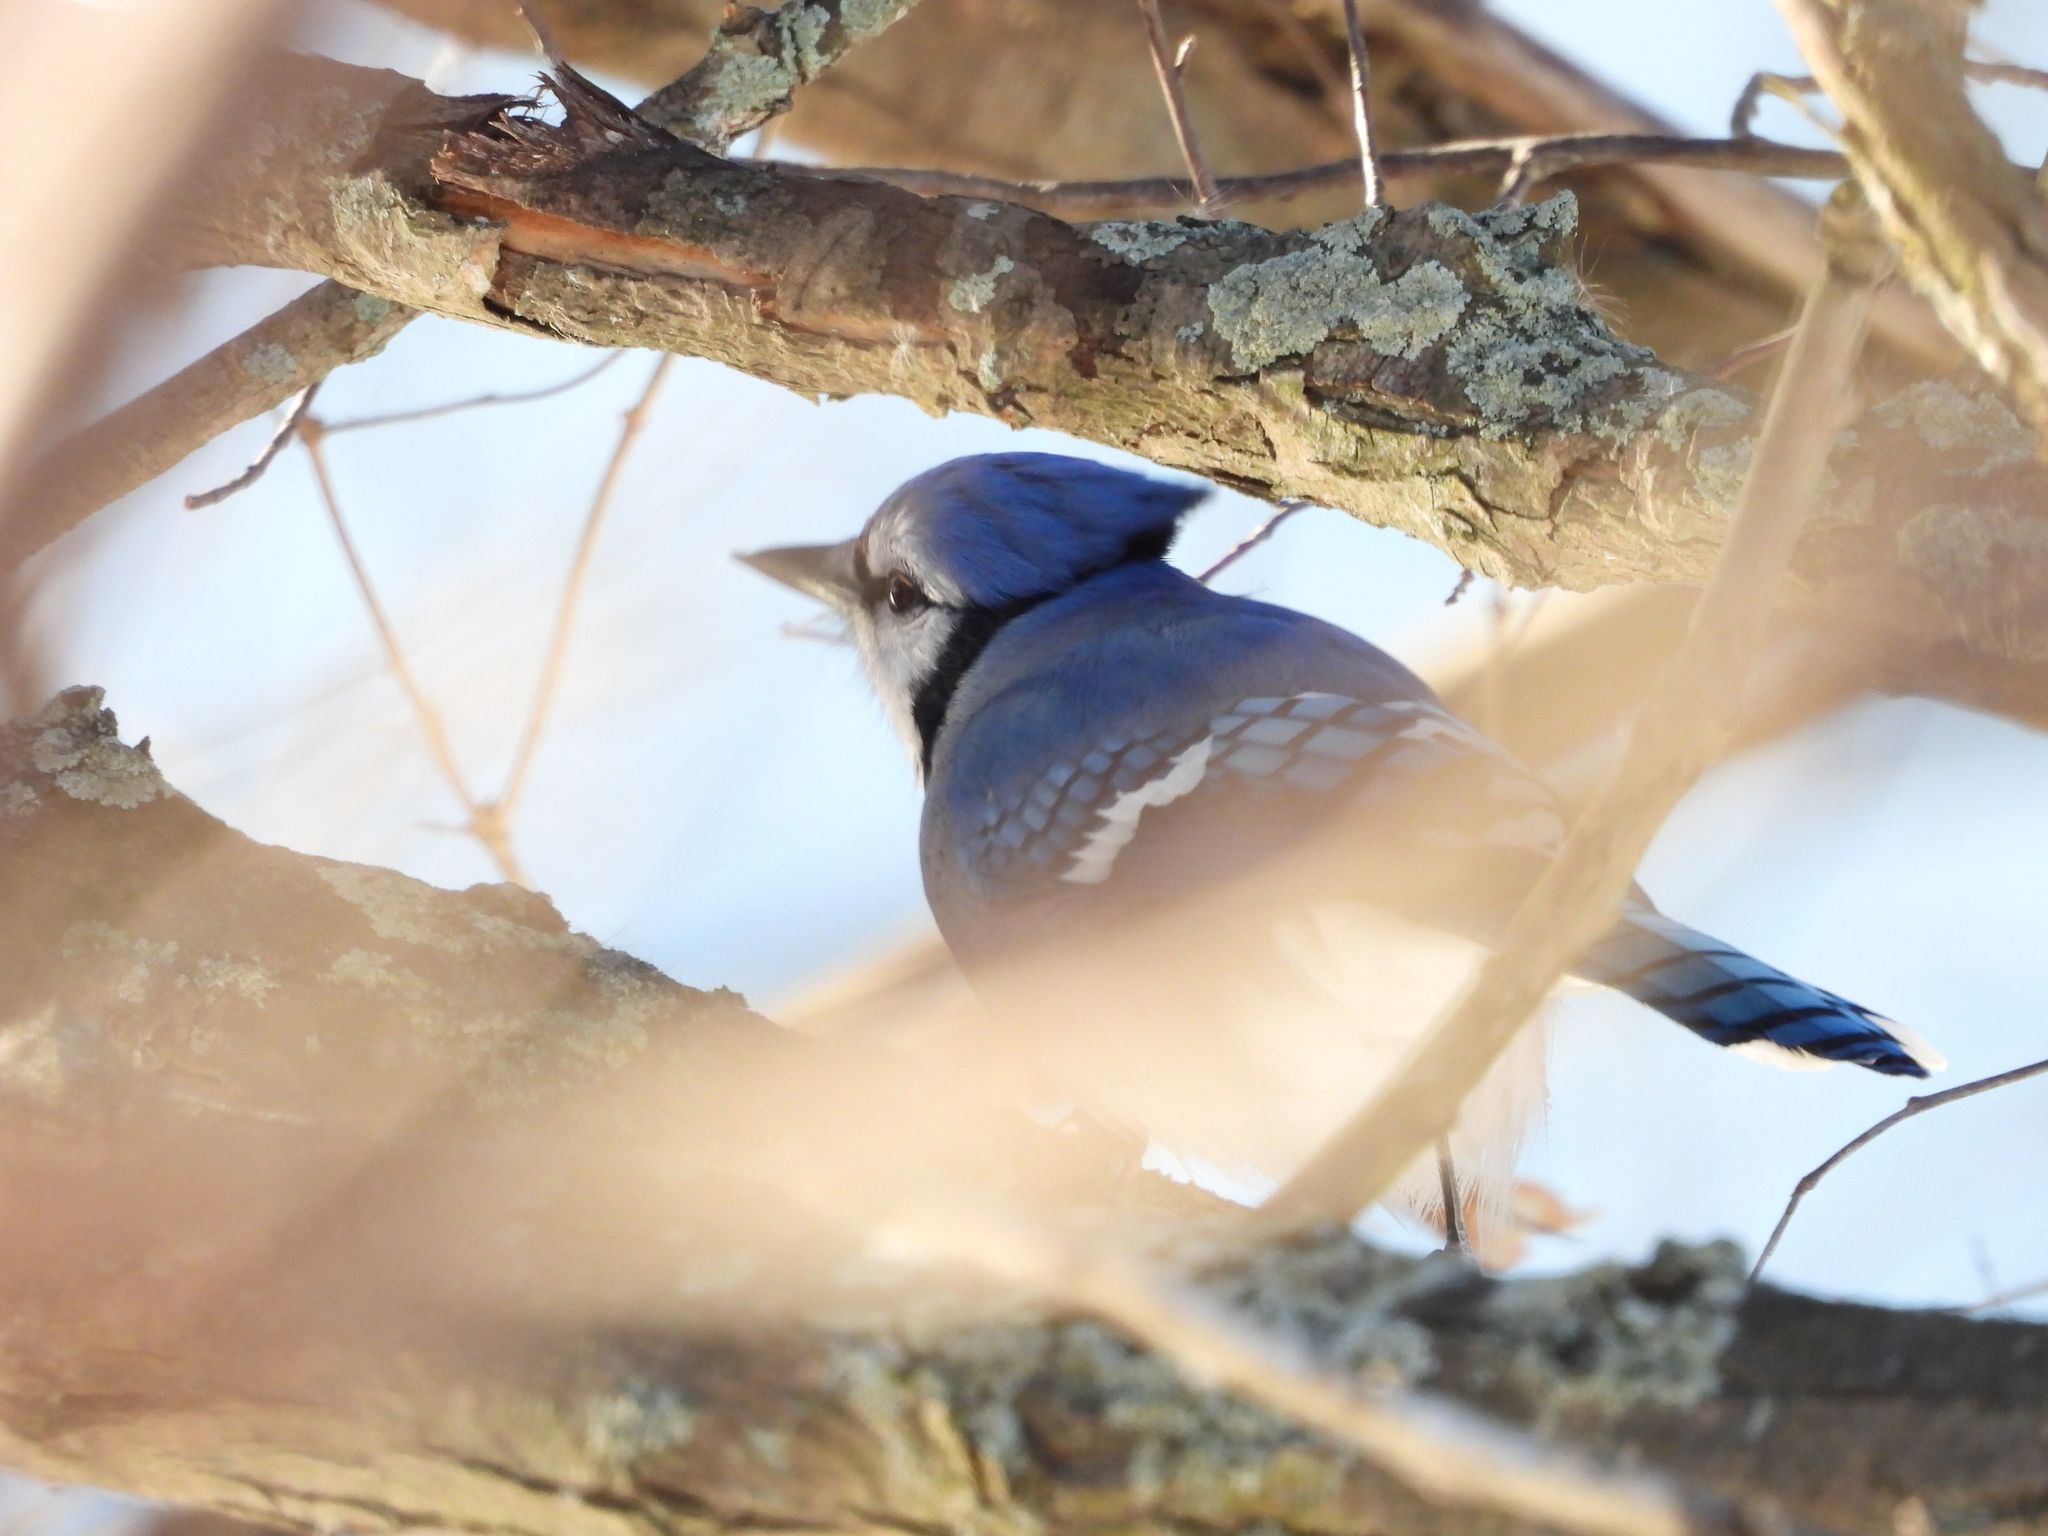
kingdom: Animalia
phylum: Chordata
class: Aves
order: Passeriformes
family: Corvidae
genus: Cyanocitta
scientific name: Cyanocitta cristata
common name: Blue jay
